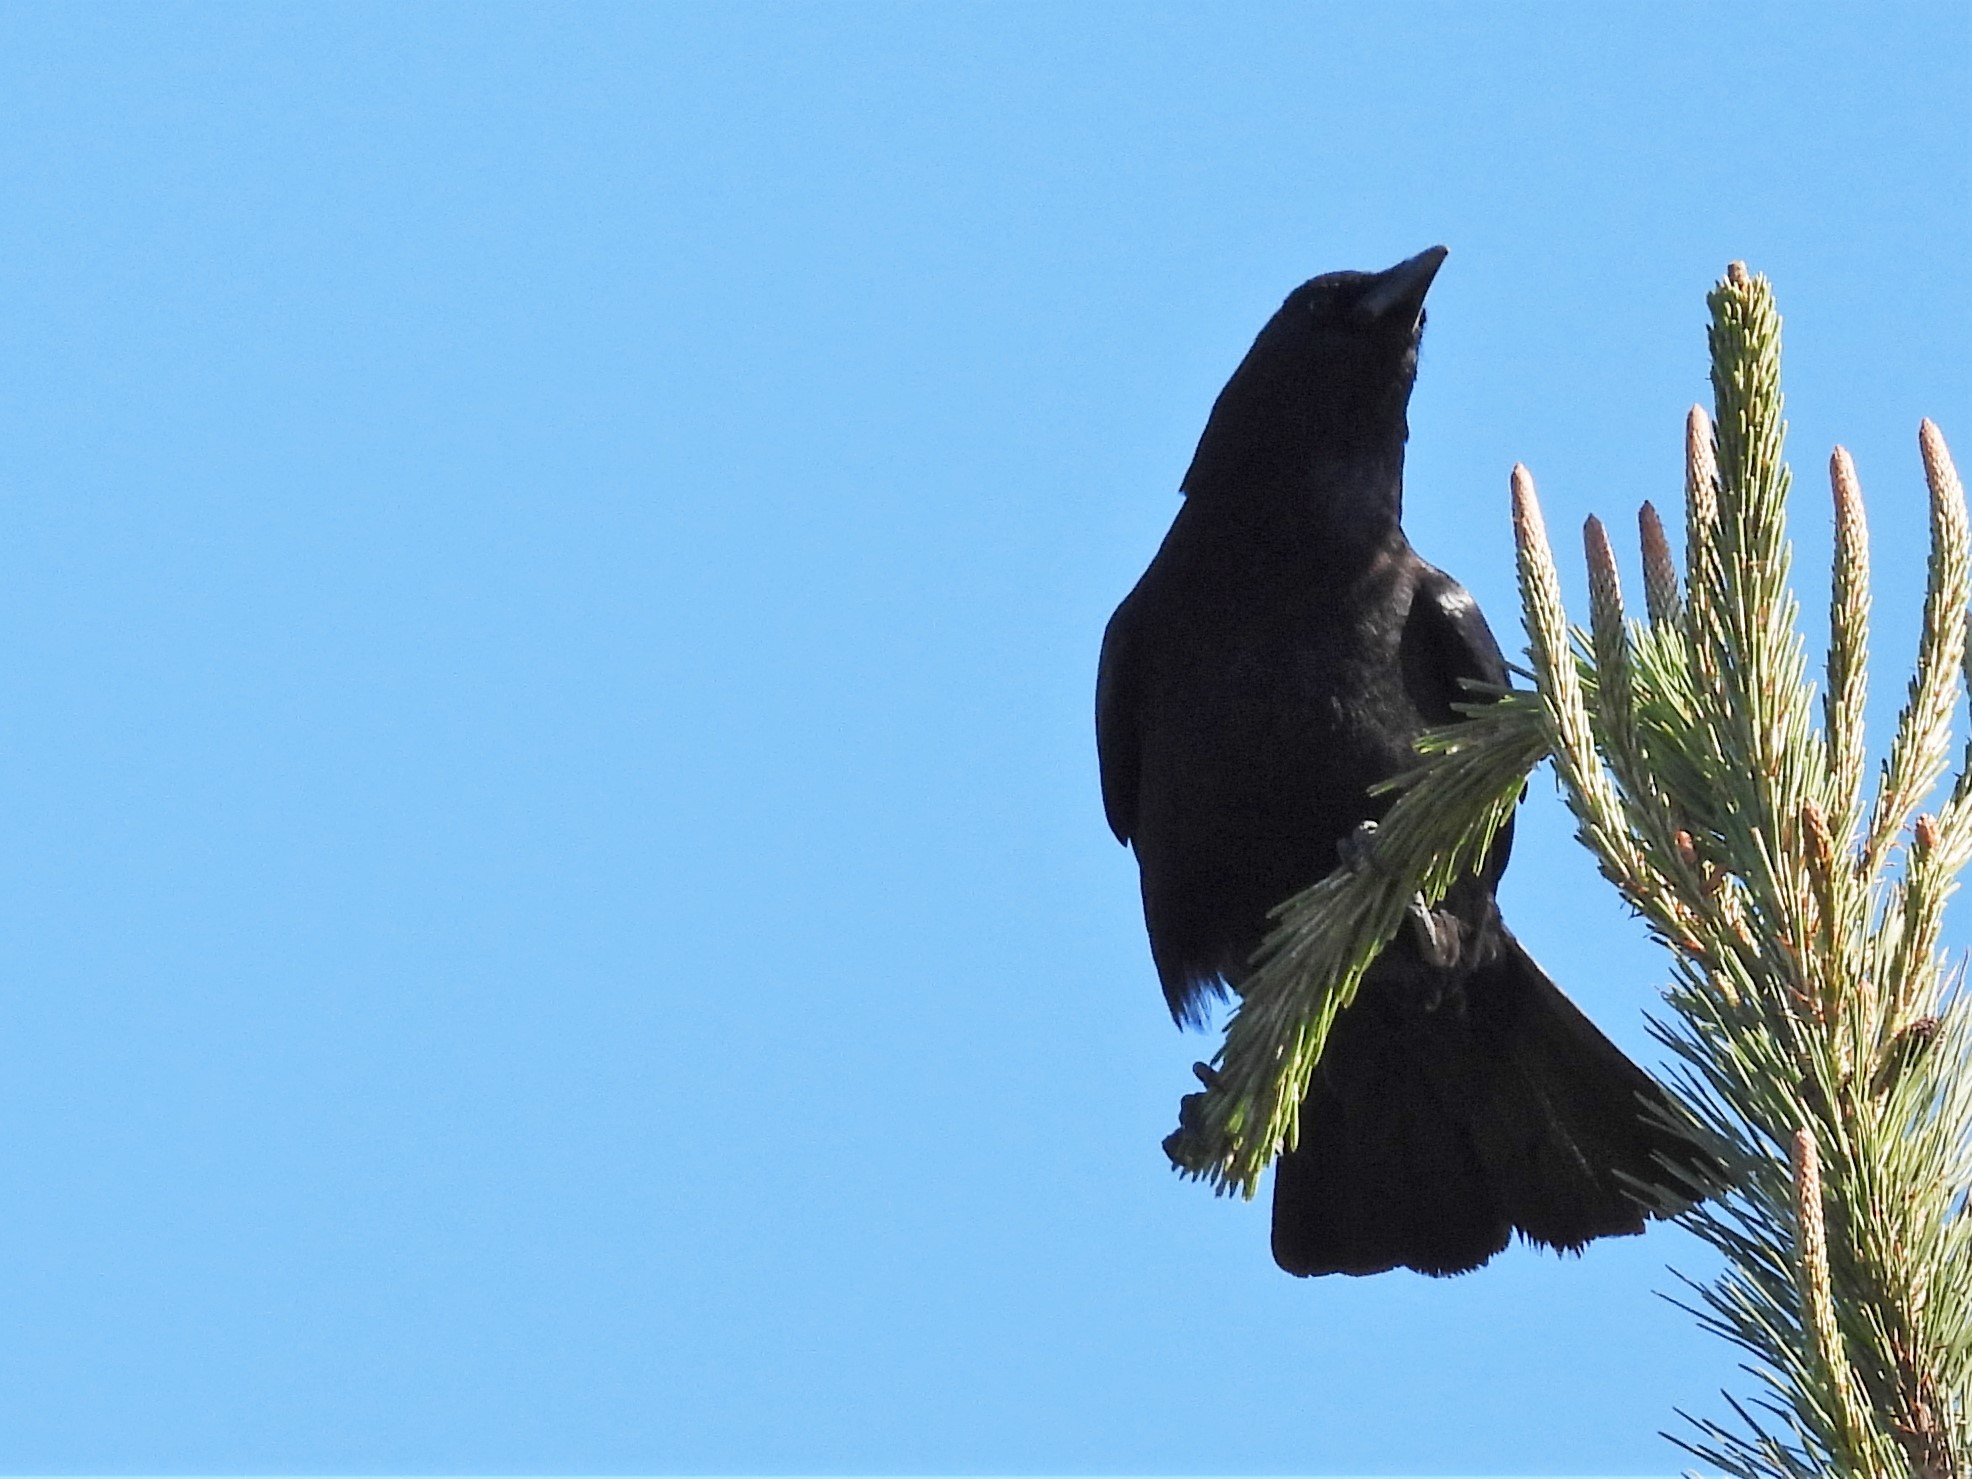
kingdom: Animalia
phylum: Chordata
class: Aves
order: Passeriformes
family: Corvidae
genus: Corvus
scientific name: Corvus brachyrhynchos
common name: American crow
